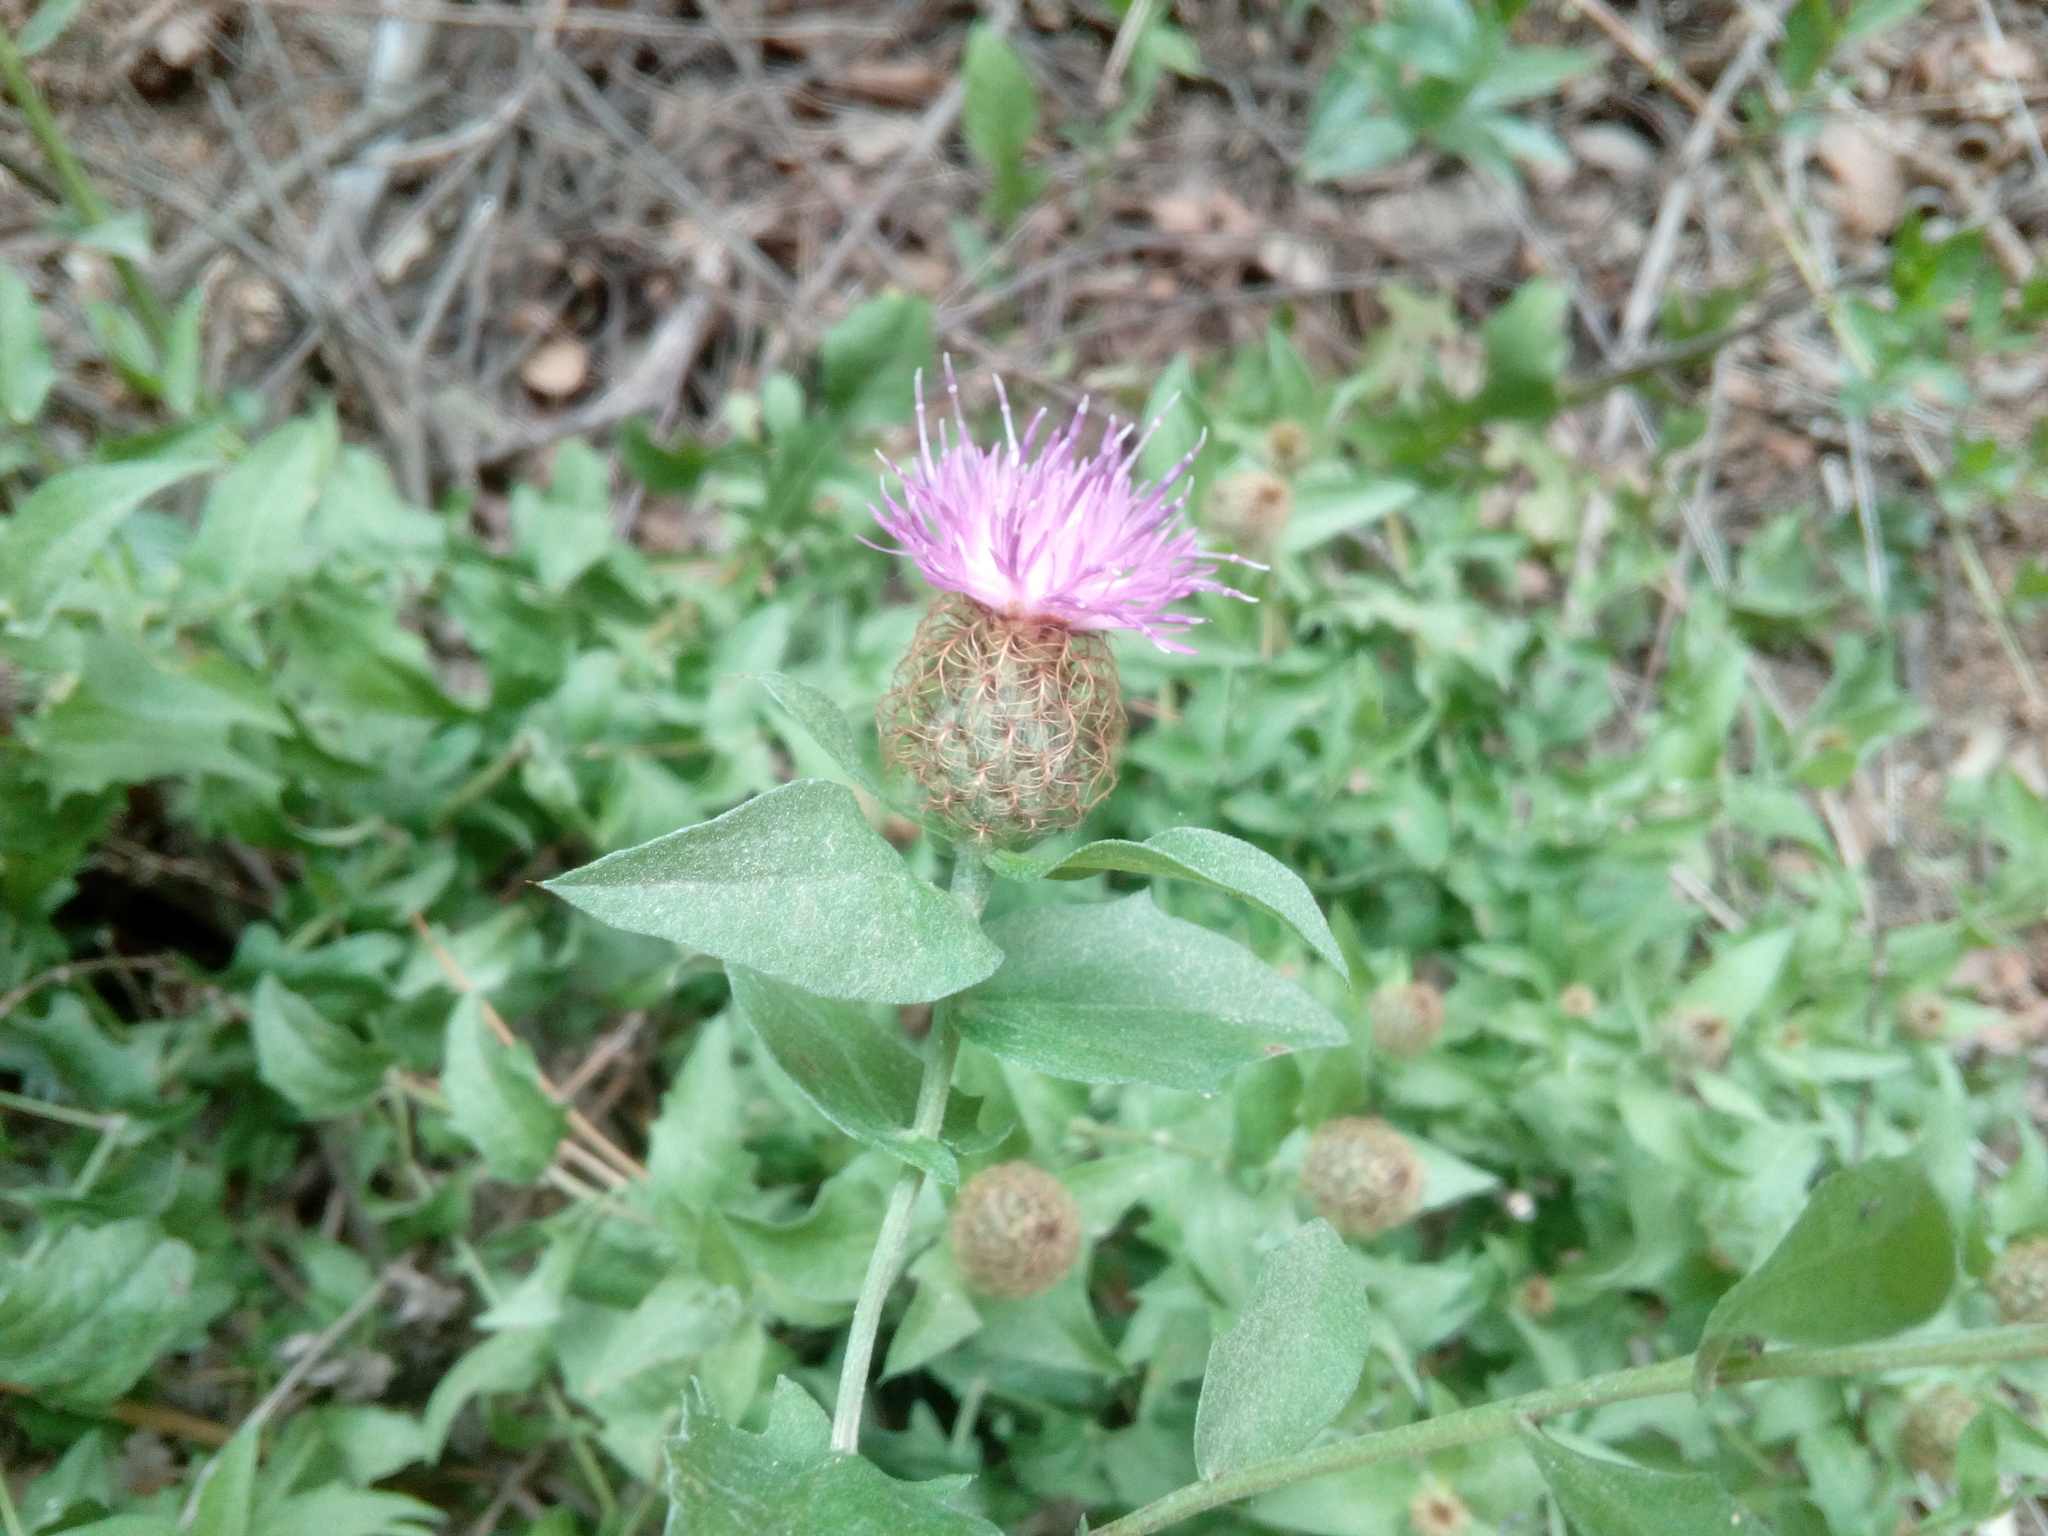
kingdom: Plantae
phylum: Tracheophyta
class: Magnoliopsida
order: Asterales
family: Asteraceae
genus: Centaurea
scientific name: Centaurea pectinata
